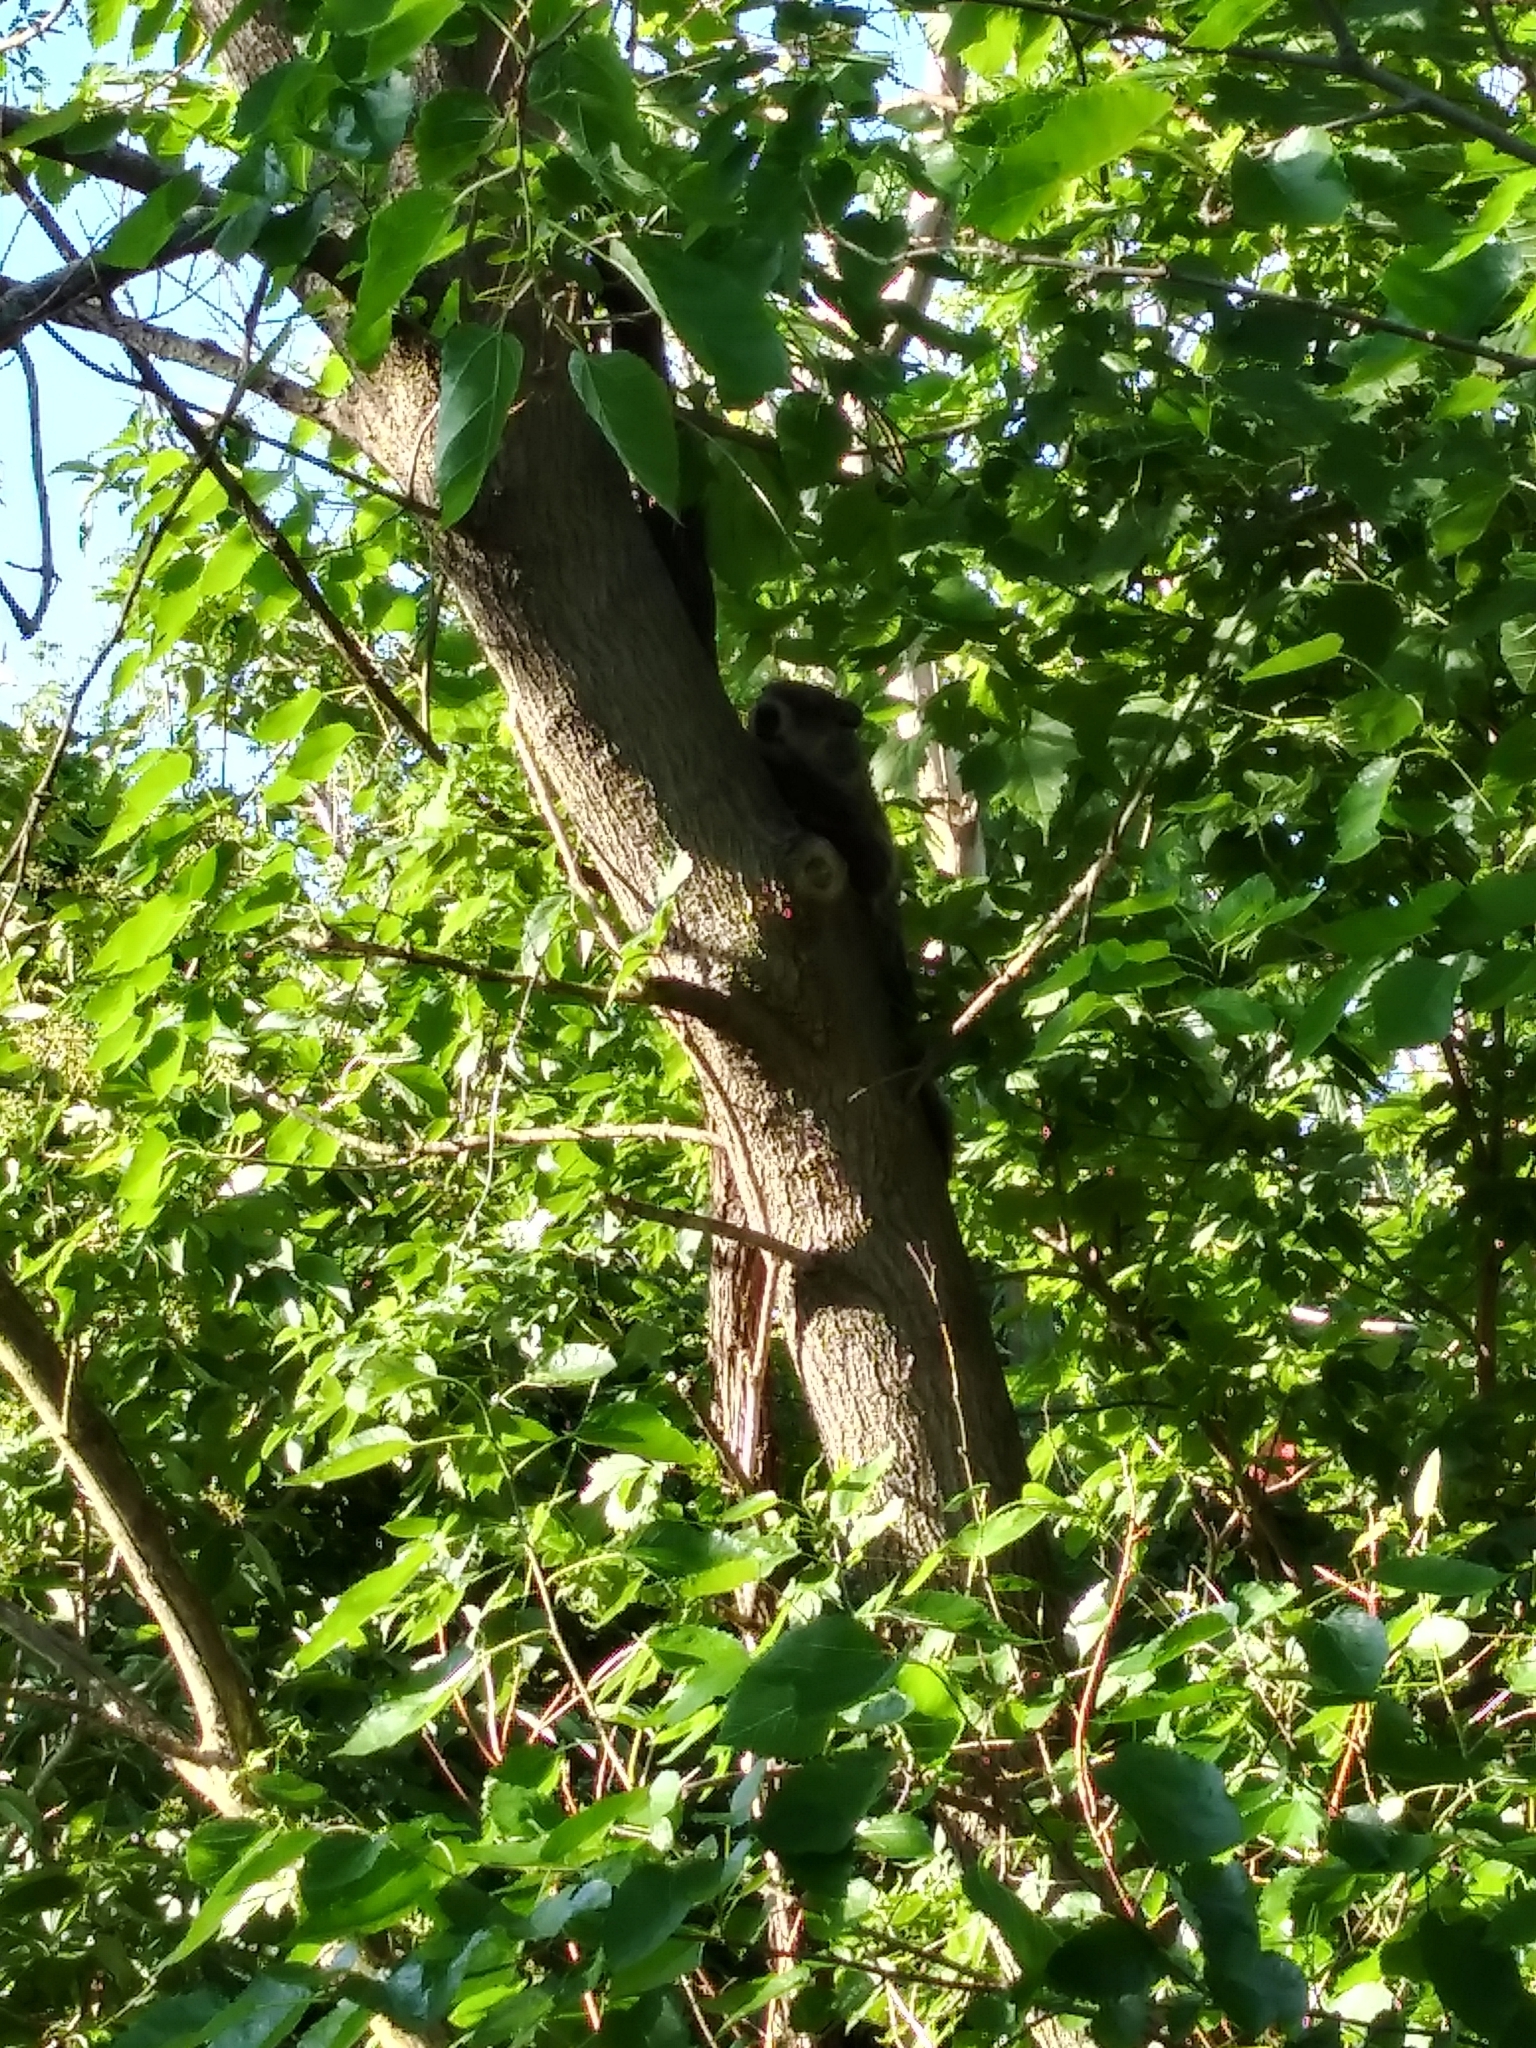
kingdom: Animalia
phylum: Chordata
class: Mammalia
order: Rodentia
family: Sciuridae
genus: Marmota
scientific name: Marmota monax
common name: Groundhog
